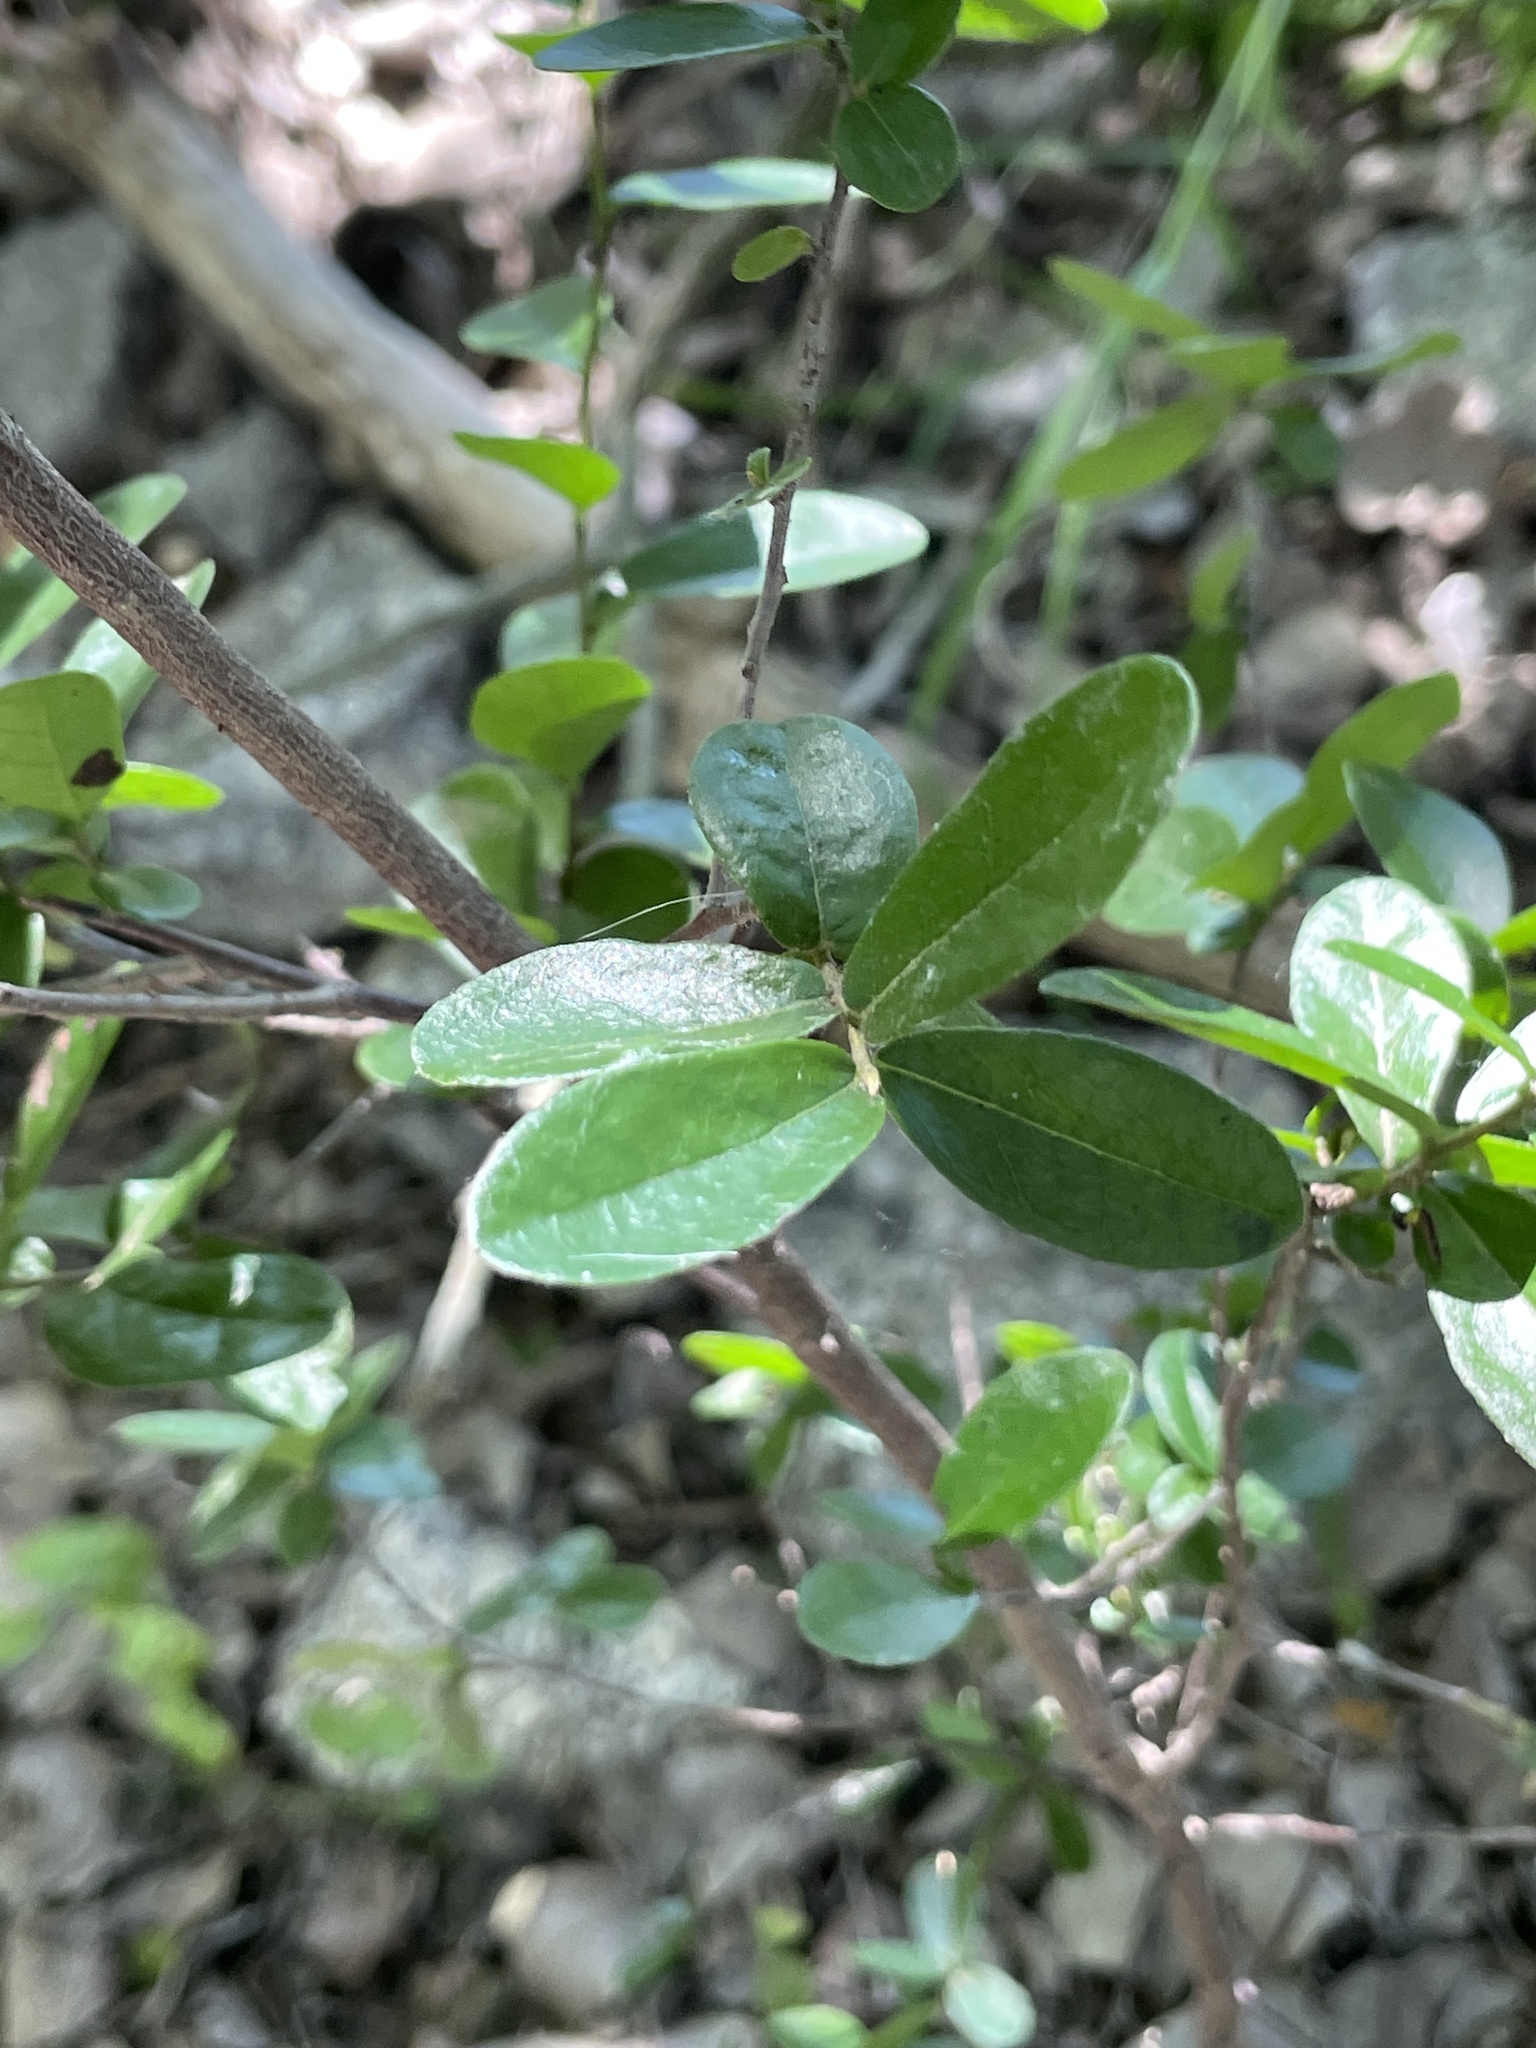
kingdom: Plantae
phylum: Tracheophyta
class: Magnoliopsida
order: Ericales
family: Ebenaceae
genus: Diospyros
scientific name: Diospyros texana
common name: Texas persimmon
